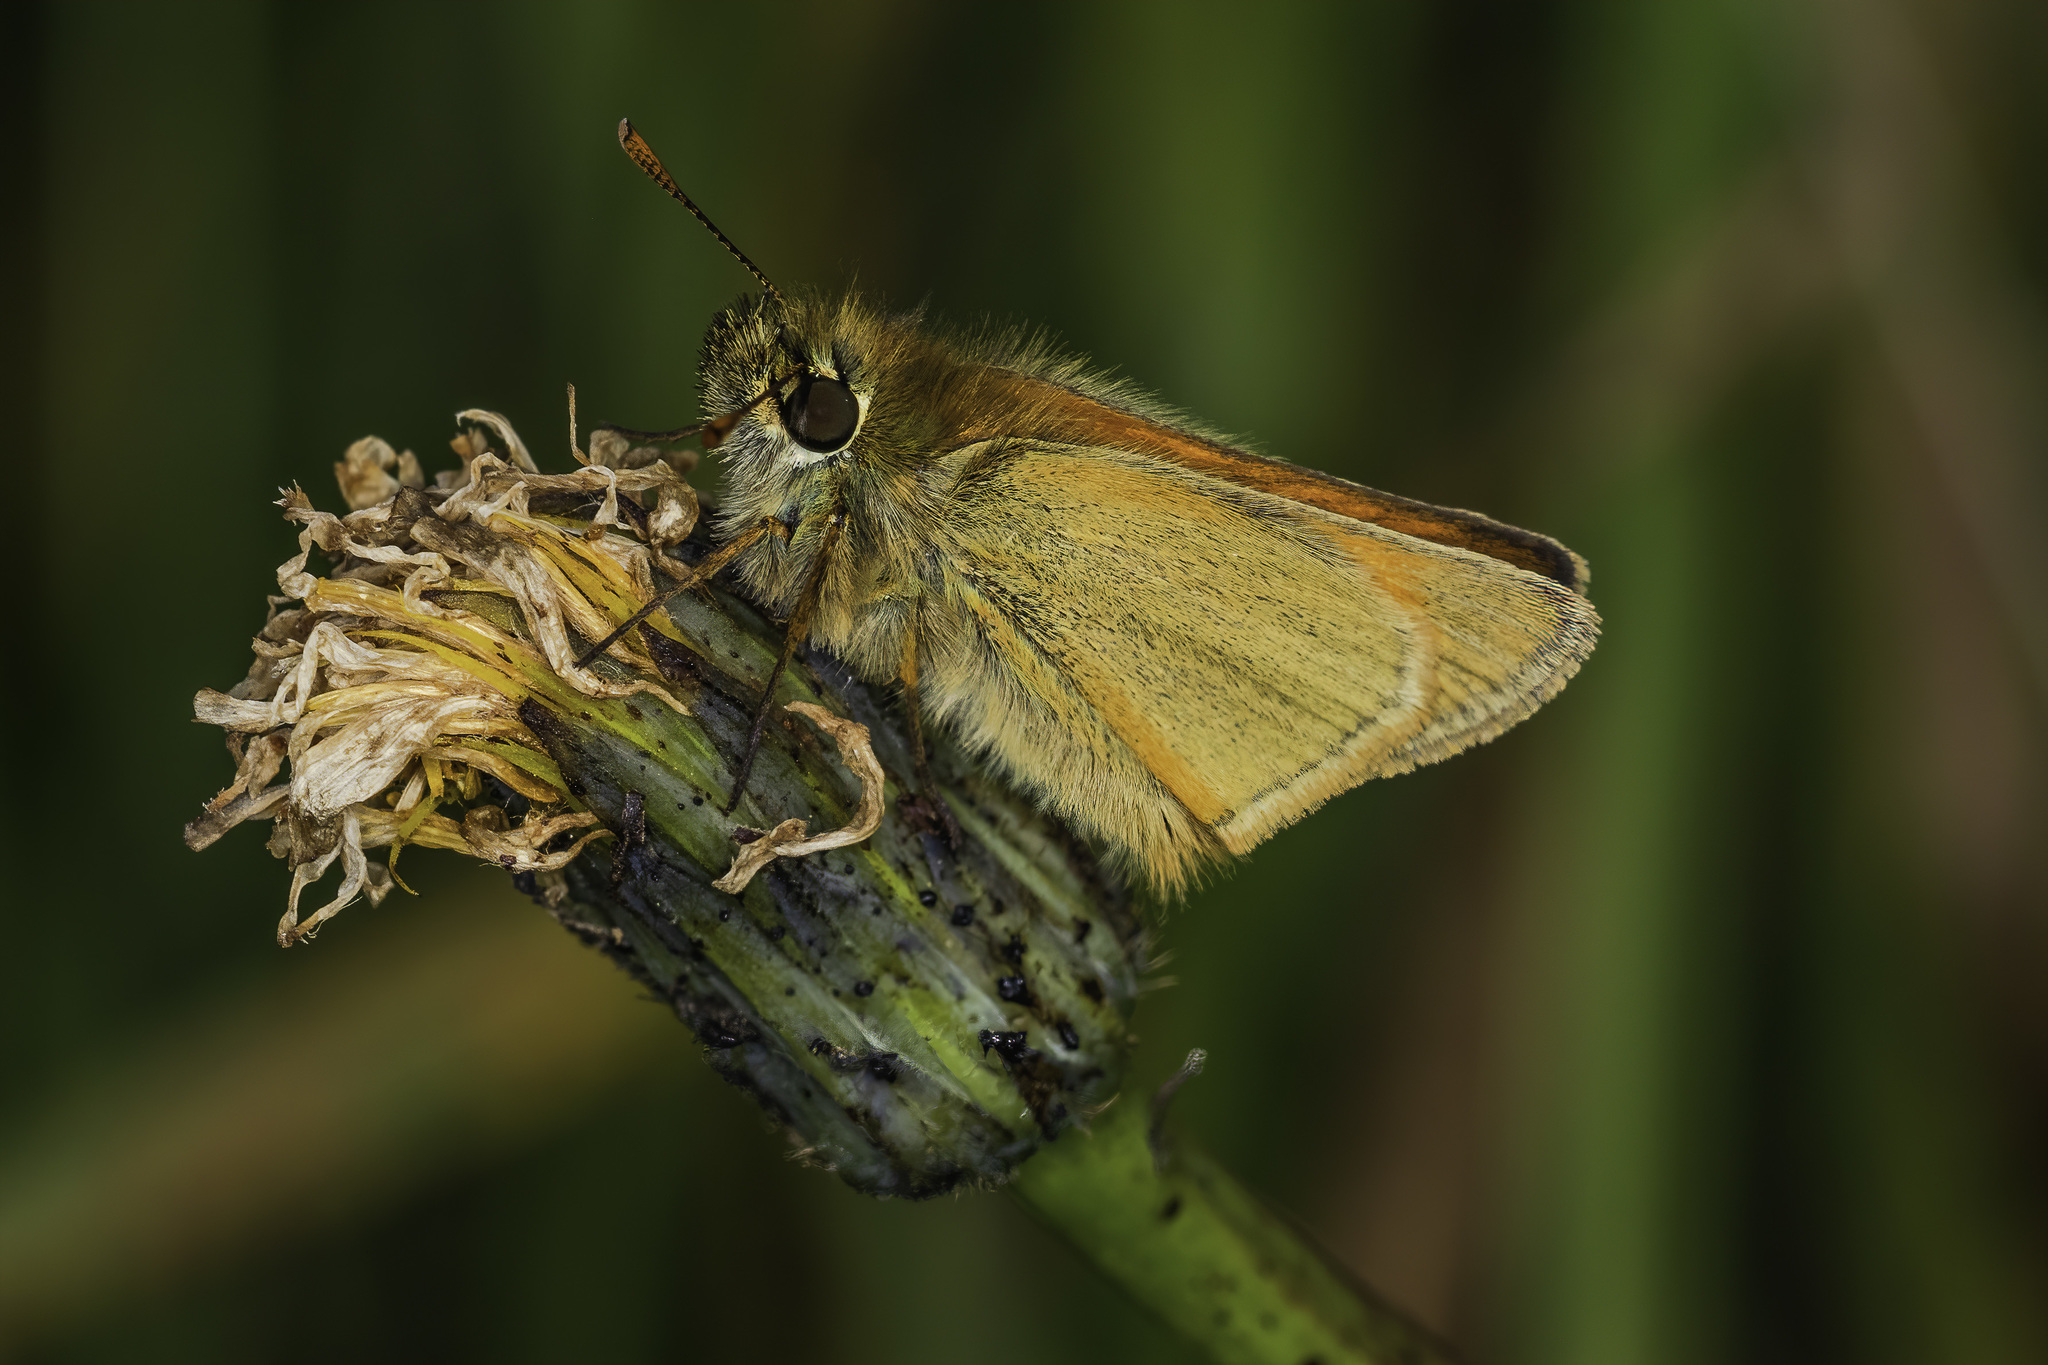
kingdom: Animalia
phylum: Arthropoda
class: Insecta
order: Lepidoptera
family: Hesperiidae
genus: Thymelicus
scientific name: Thymelicus sylvestris
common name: Small skipper
